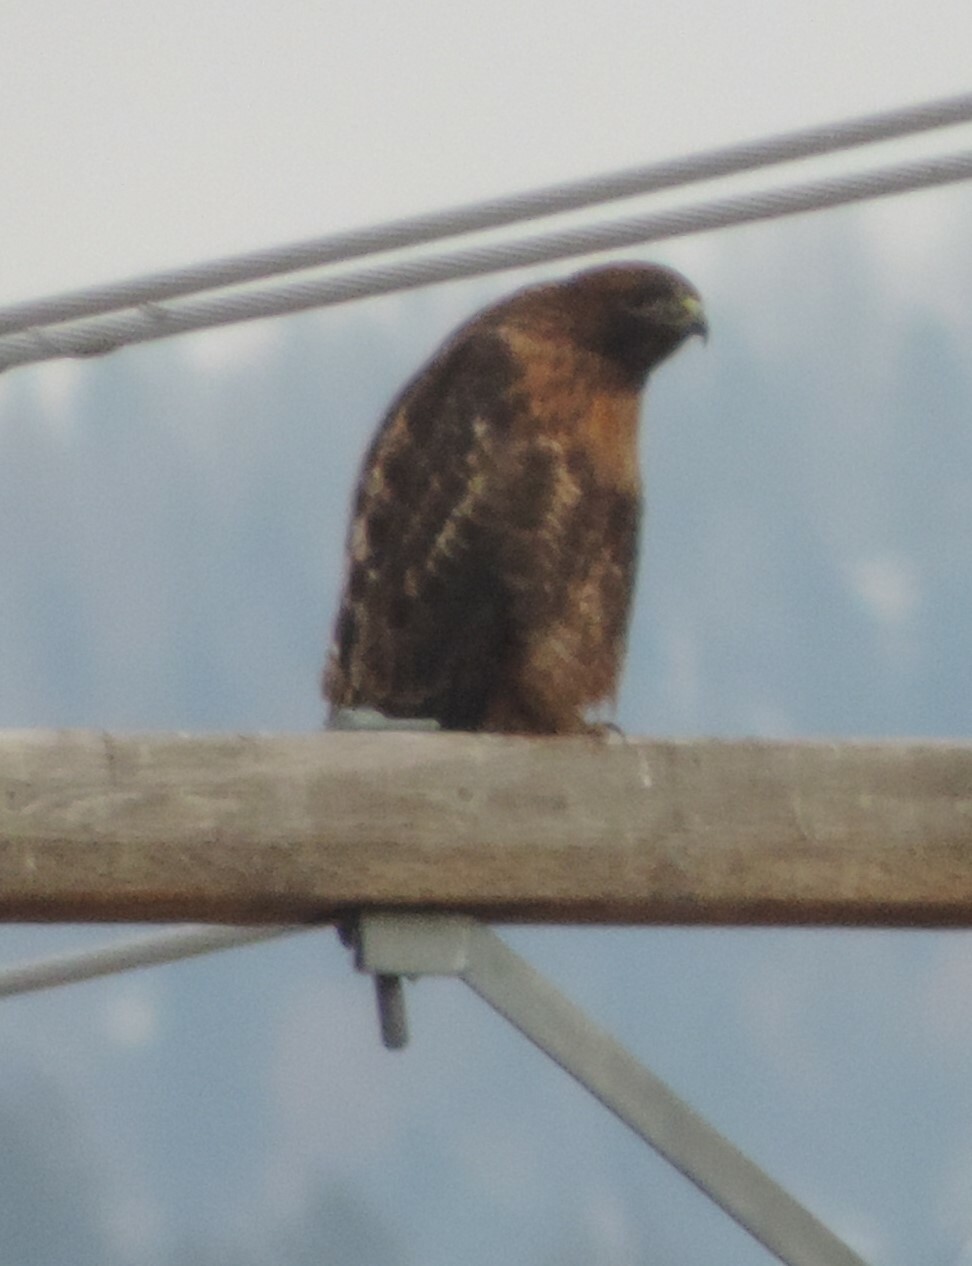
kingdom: Animalia
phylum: Chordata
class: Aves
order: Accipitriformes
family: Accipitridae
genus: Buteo
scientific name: Buteo jamaicensis
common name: Red-tailed hawk
